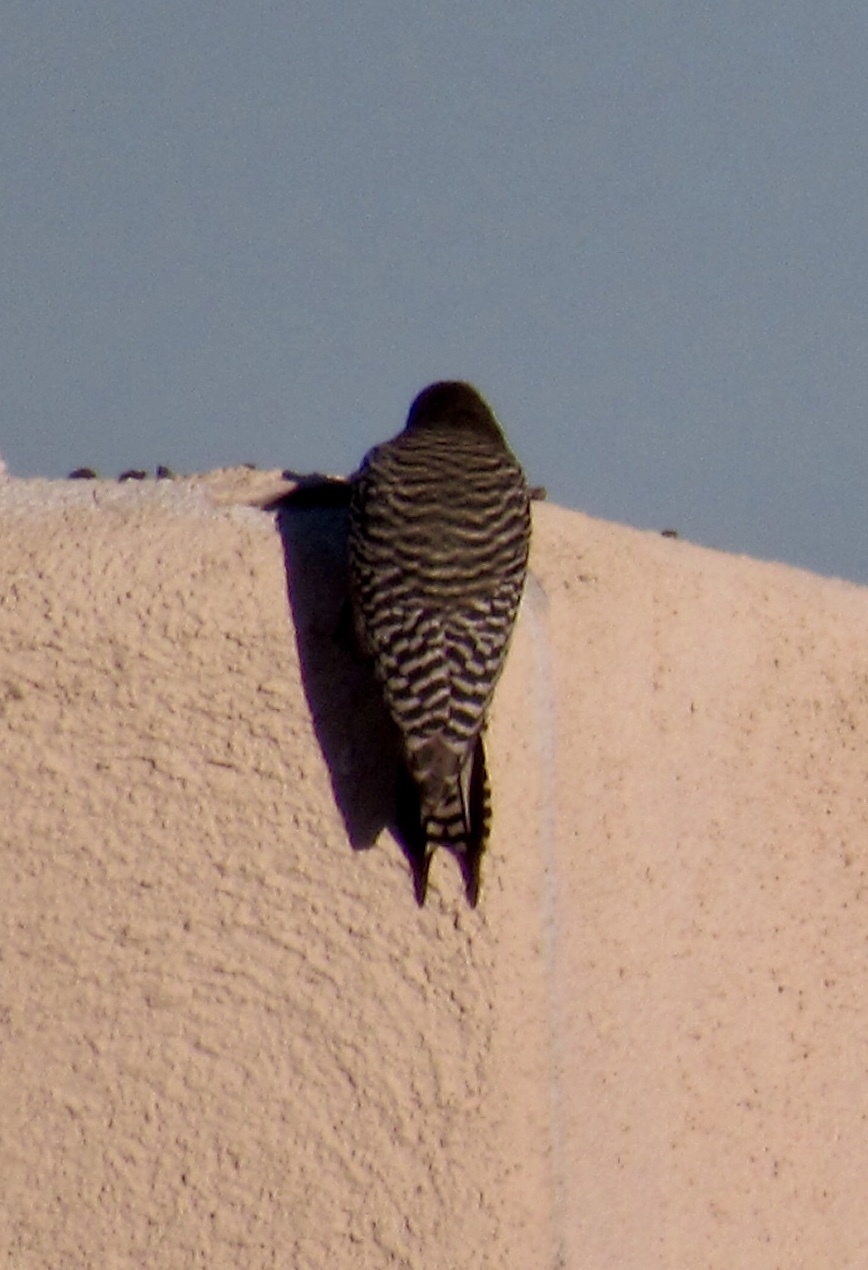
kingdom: Animalia
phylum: Chordata
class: Aves
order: Piciformes
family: Picidae
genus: Melanerpes
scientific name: Melanerpes uropygialis
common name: Gila woodpecker
